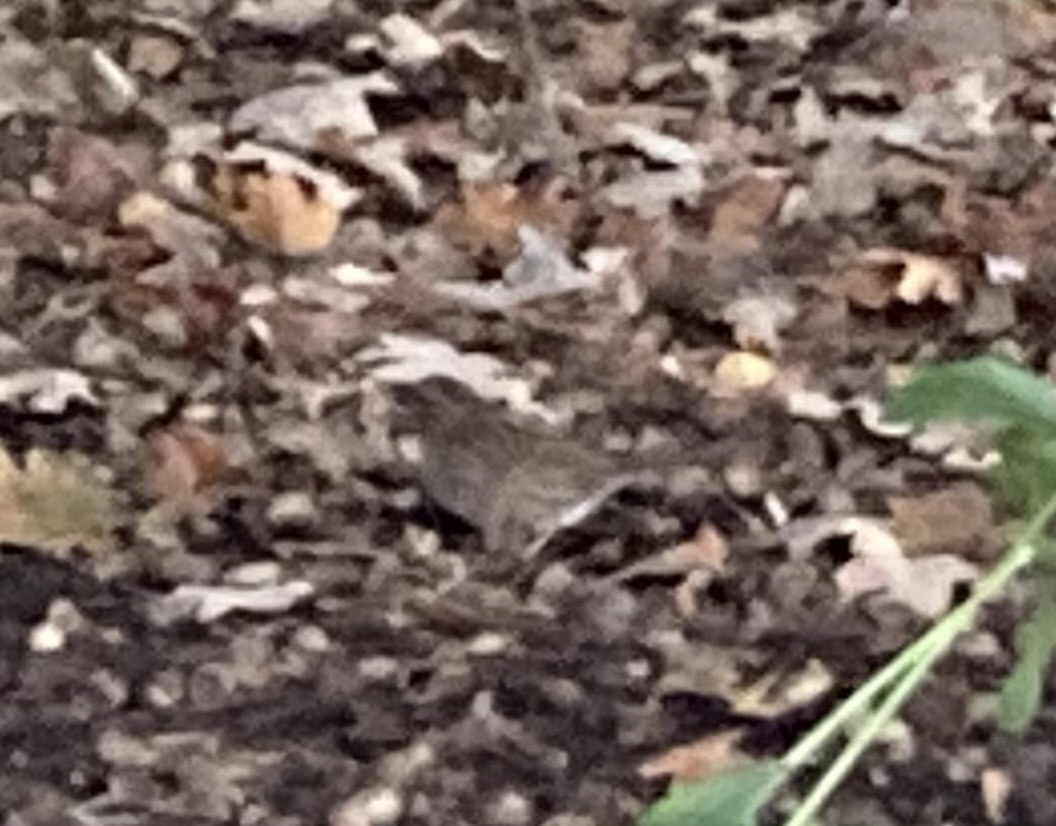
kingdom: Animalia
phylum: Chordata
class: Aves
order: Passeriformes
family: Prunellidae
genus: Prunella
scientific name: Prunella modularis
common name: Dunnock
